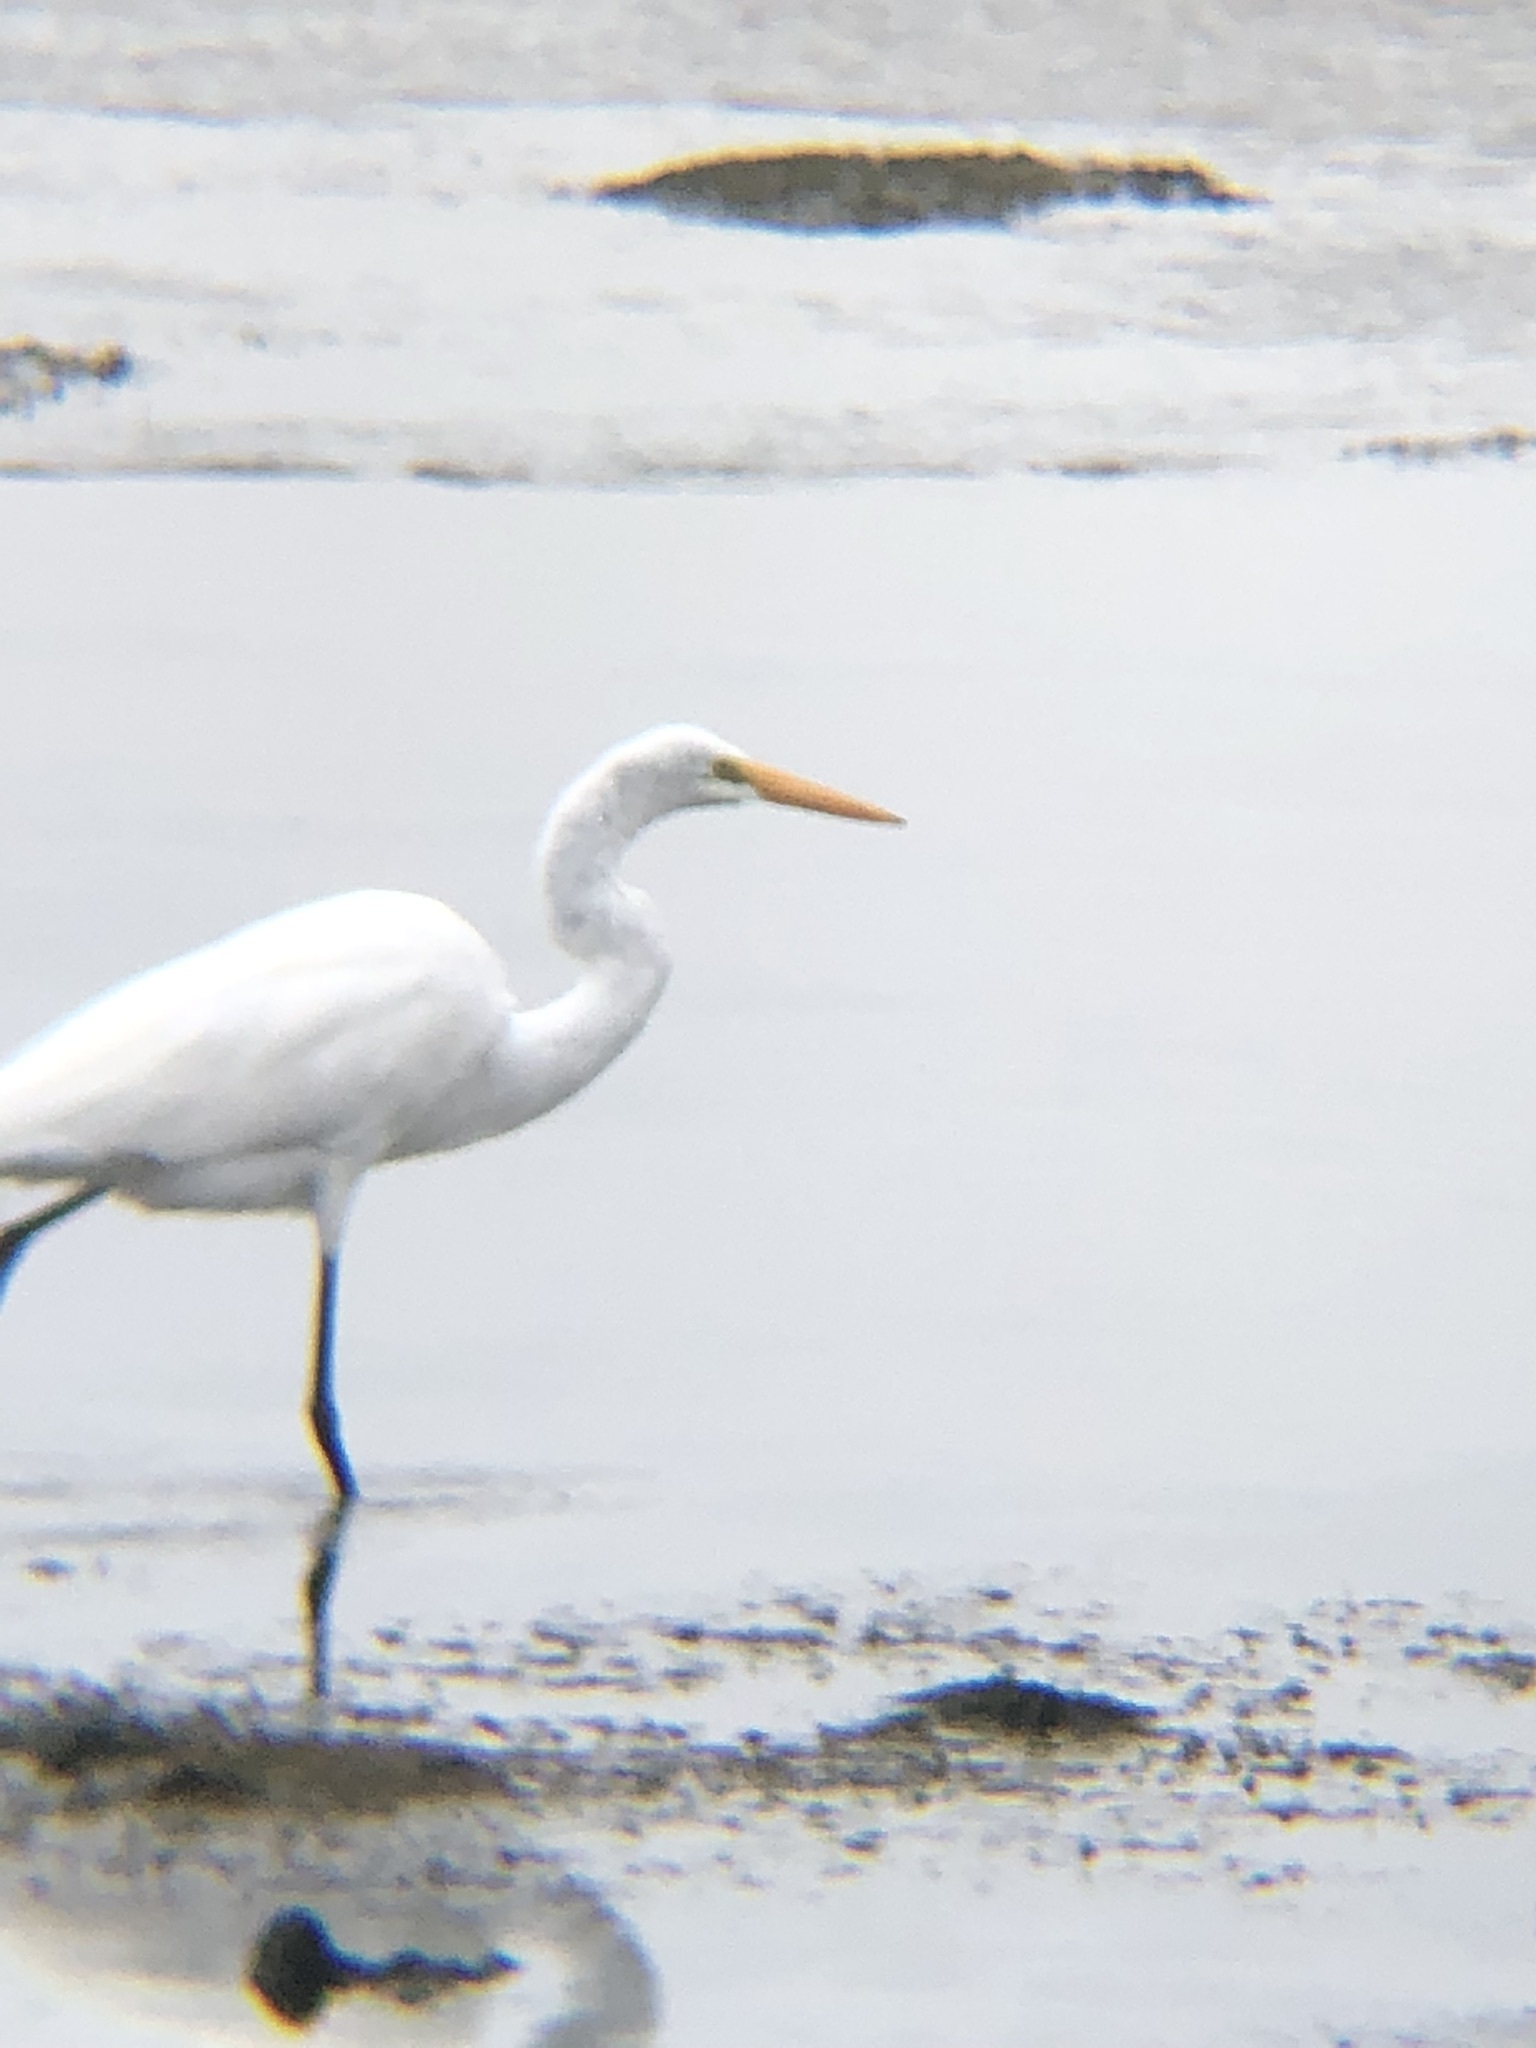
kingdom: Animalia
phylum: Chordata
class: Aves
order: Pelecaniformes
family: Ardeidae
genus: Ardea
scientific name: Ardea alba
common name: Great egret
